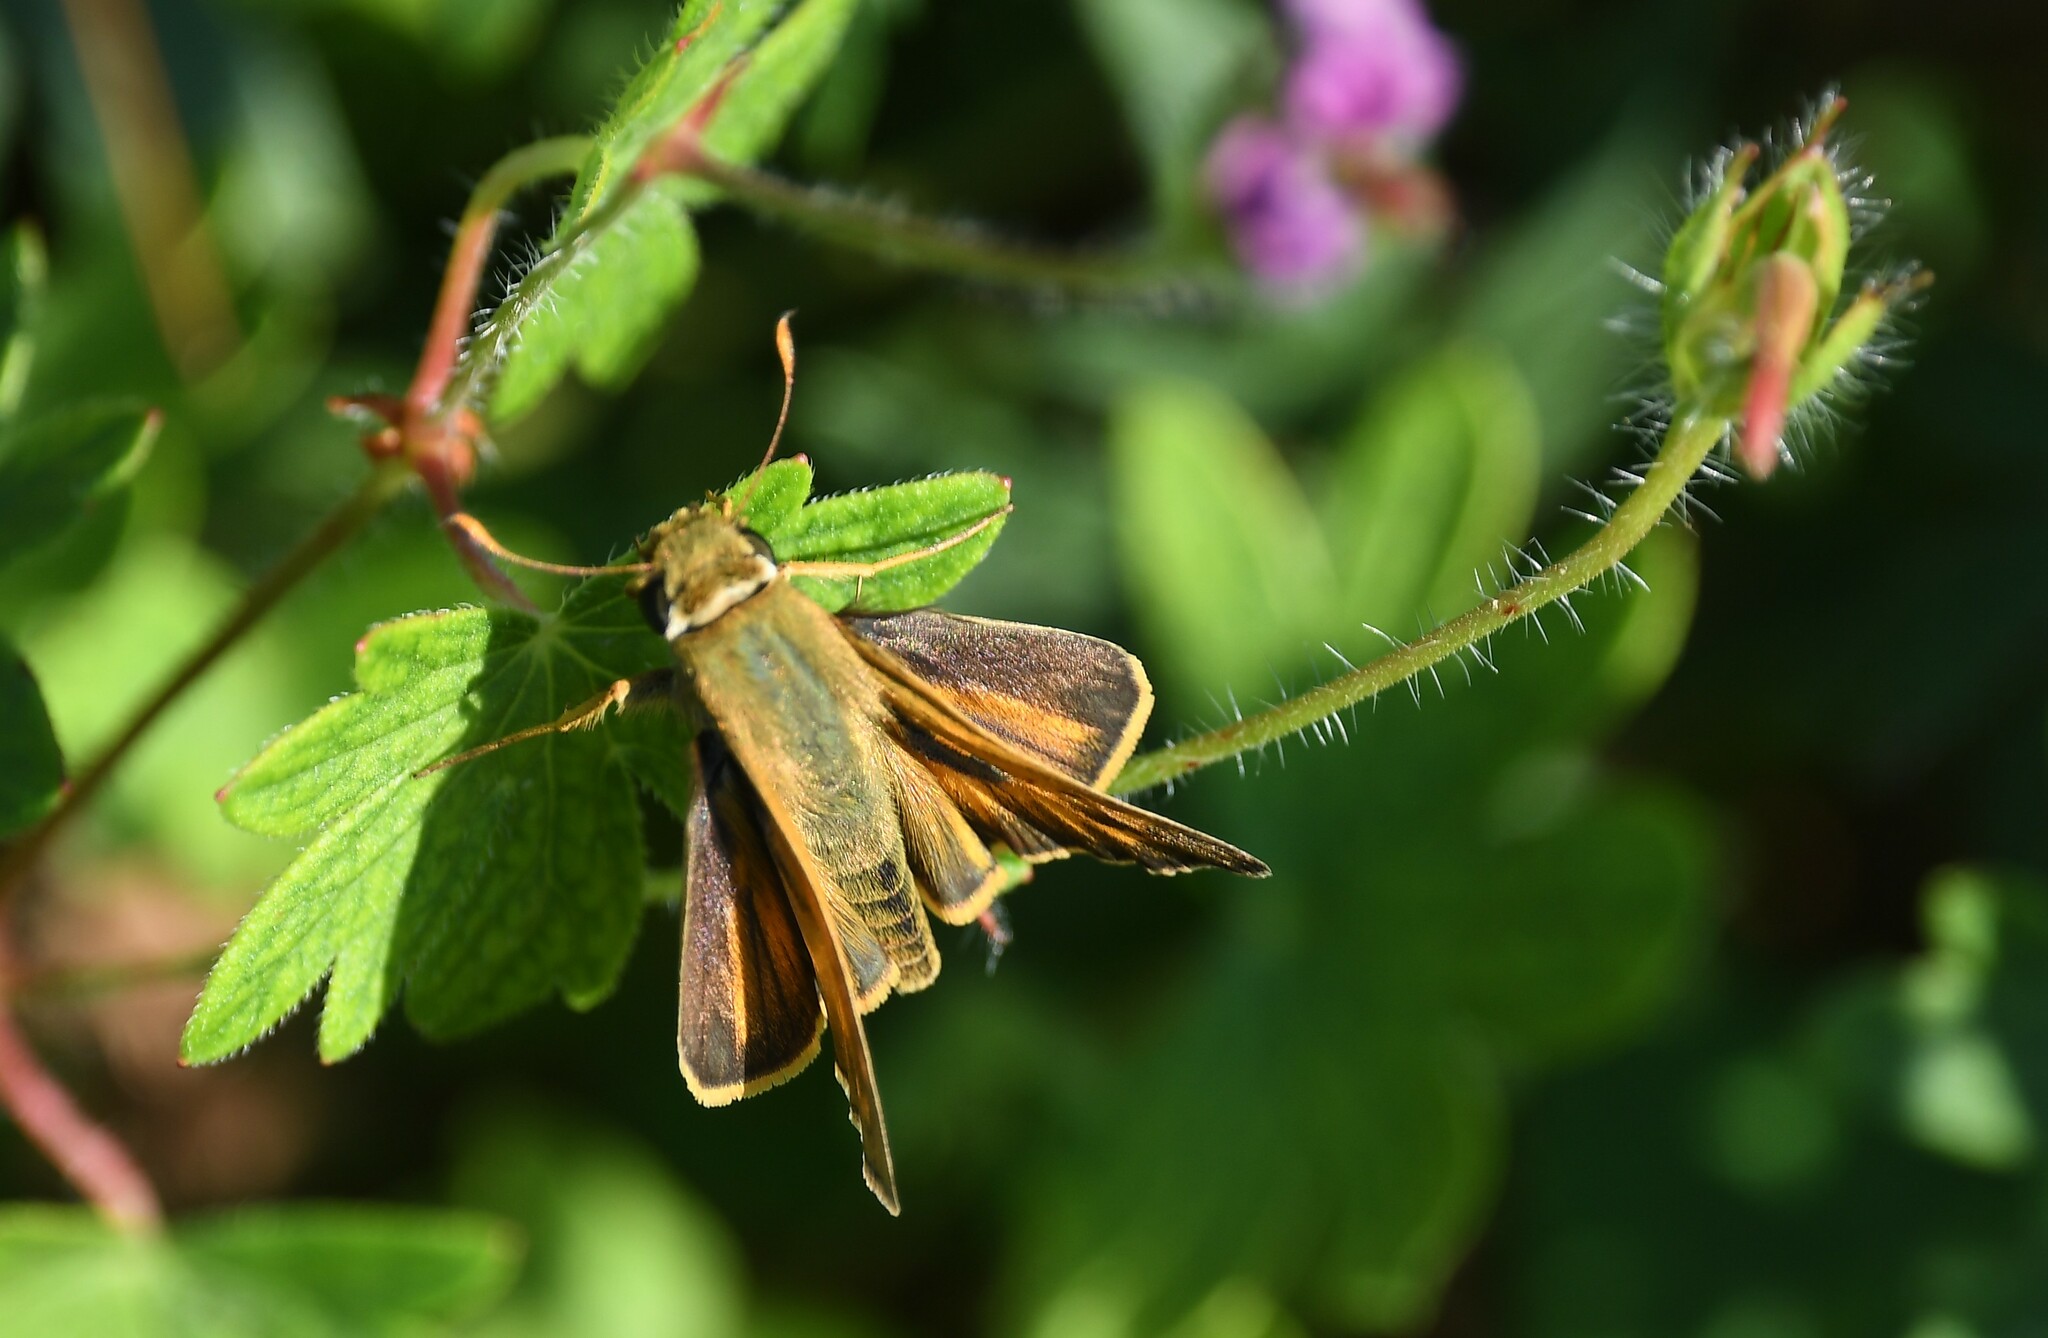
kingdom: Animalia
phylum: Arthropoda
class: Insecta
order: Lepidoptera
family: Hesperiidae
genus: Atalopedes
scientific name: Atalopedes
